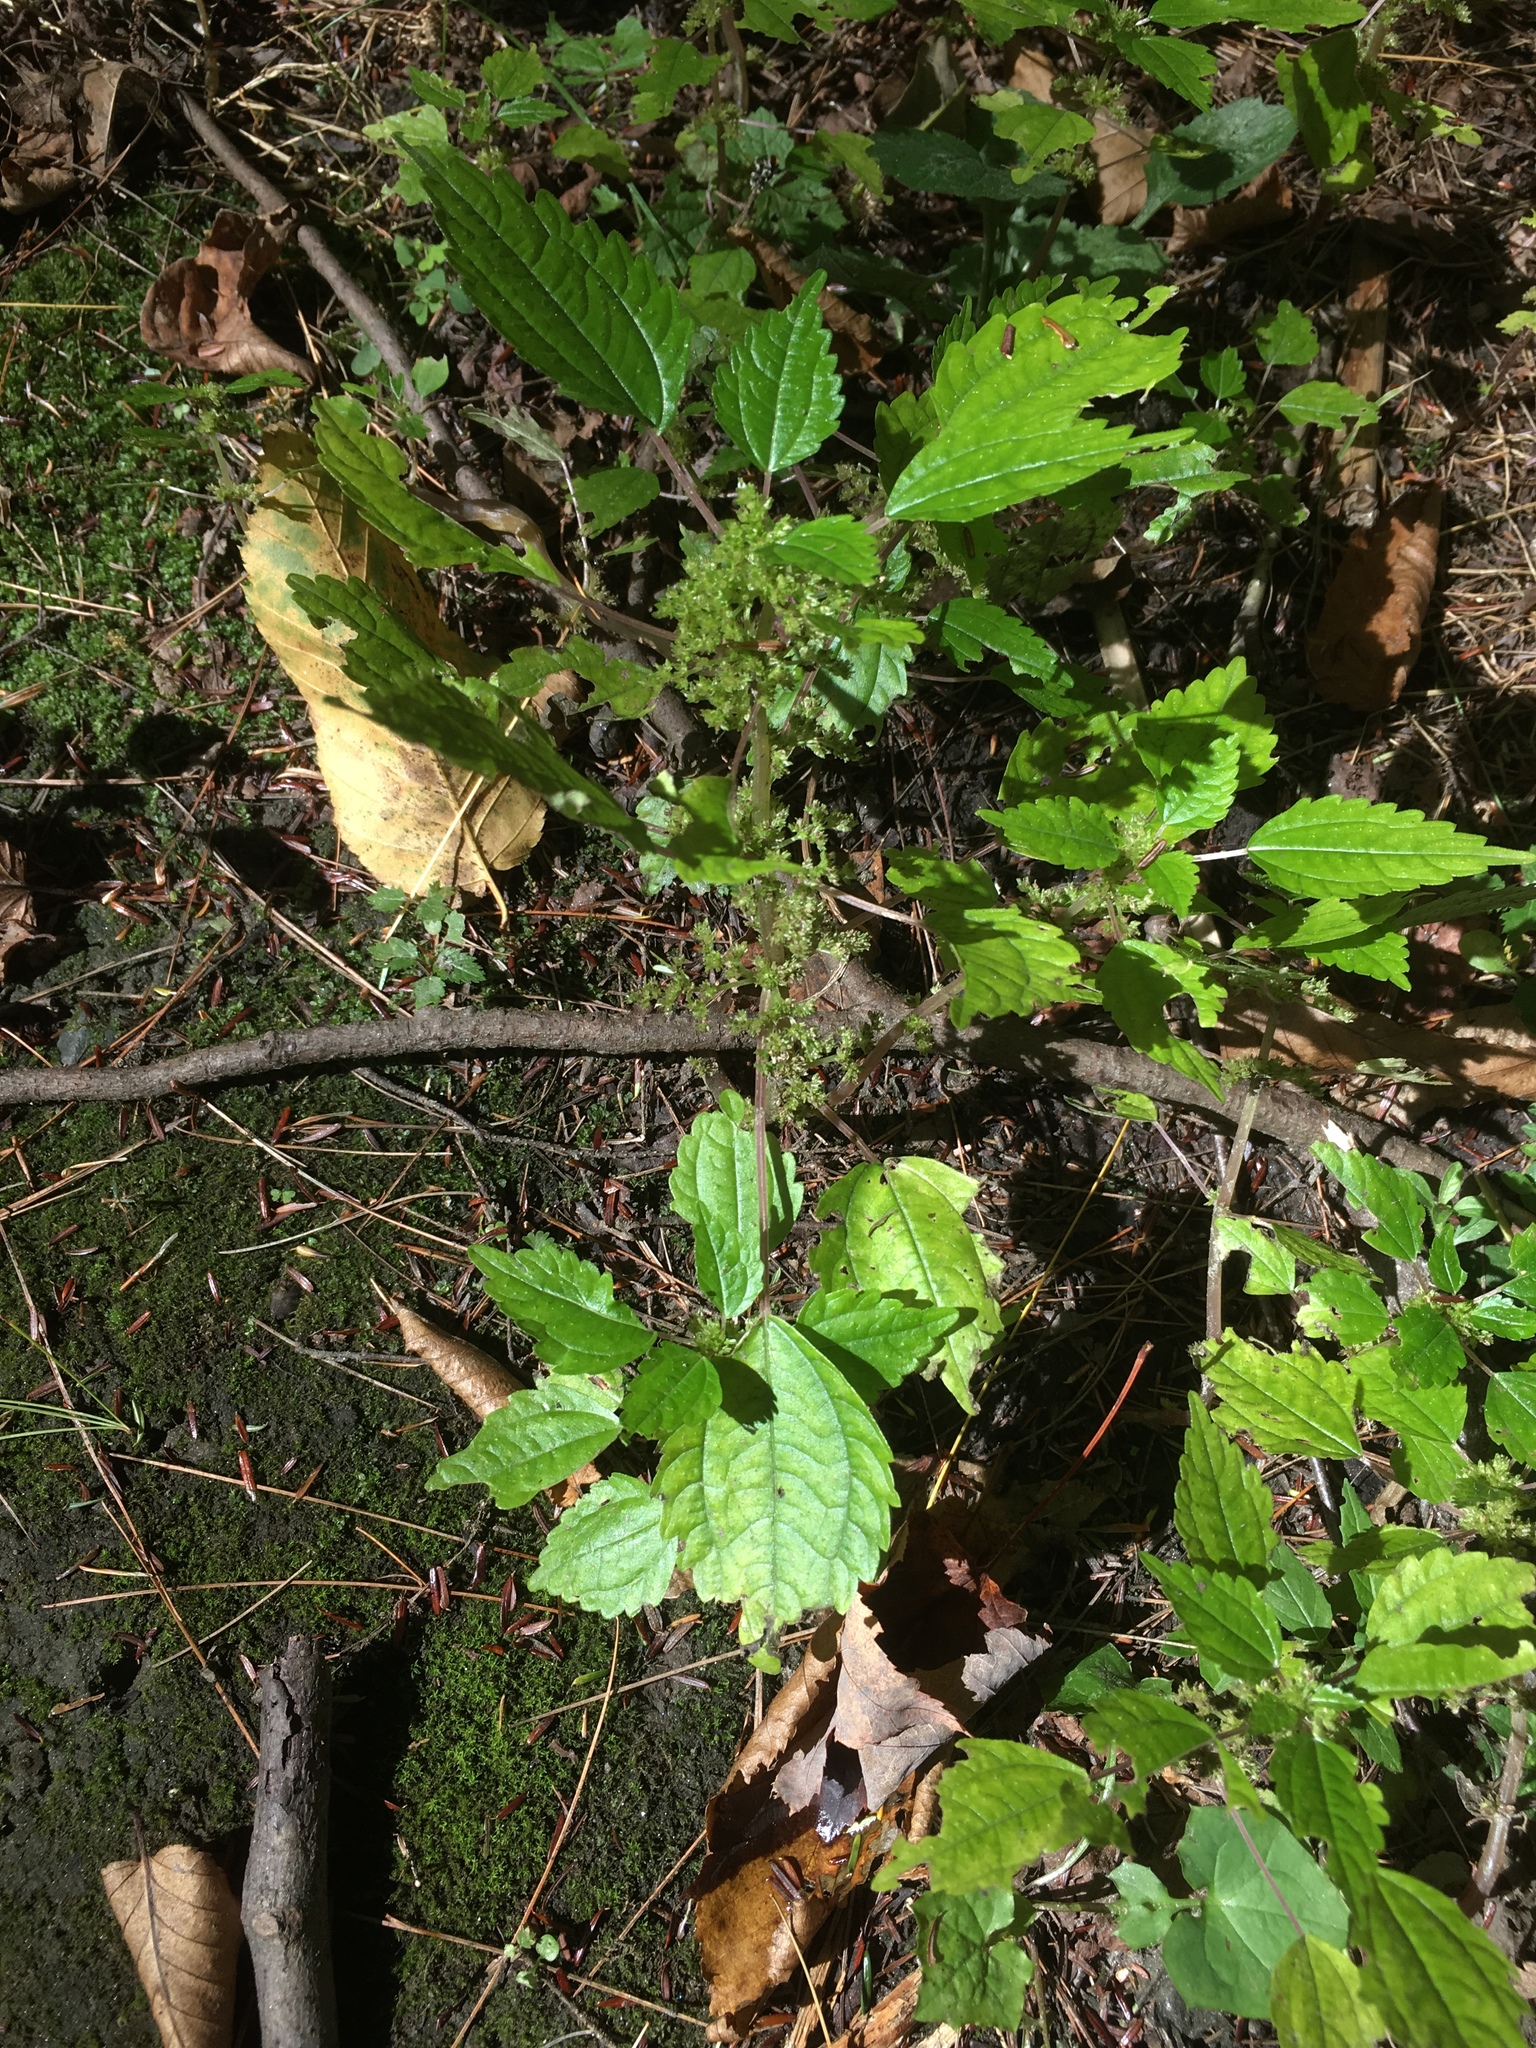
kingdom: Plantae
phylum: Tracheophyta
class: Magnoliopsida
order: Rosales
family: Urticaceae
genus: Pilea
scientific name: Pilea pumila
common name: Clearweed
